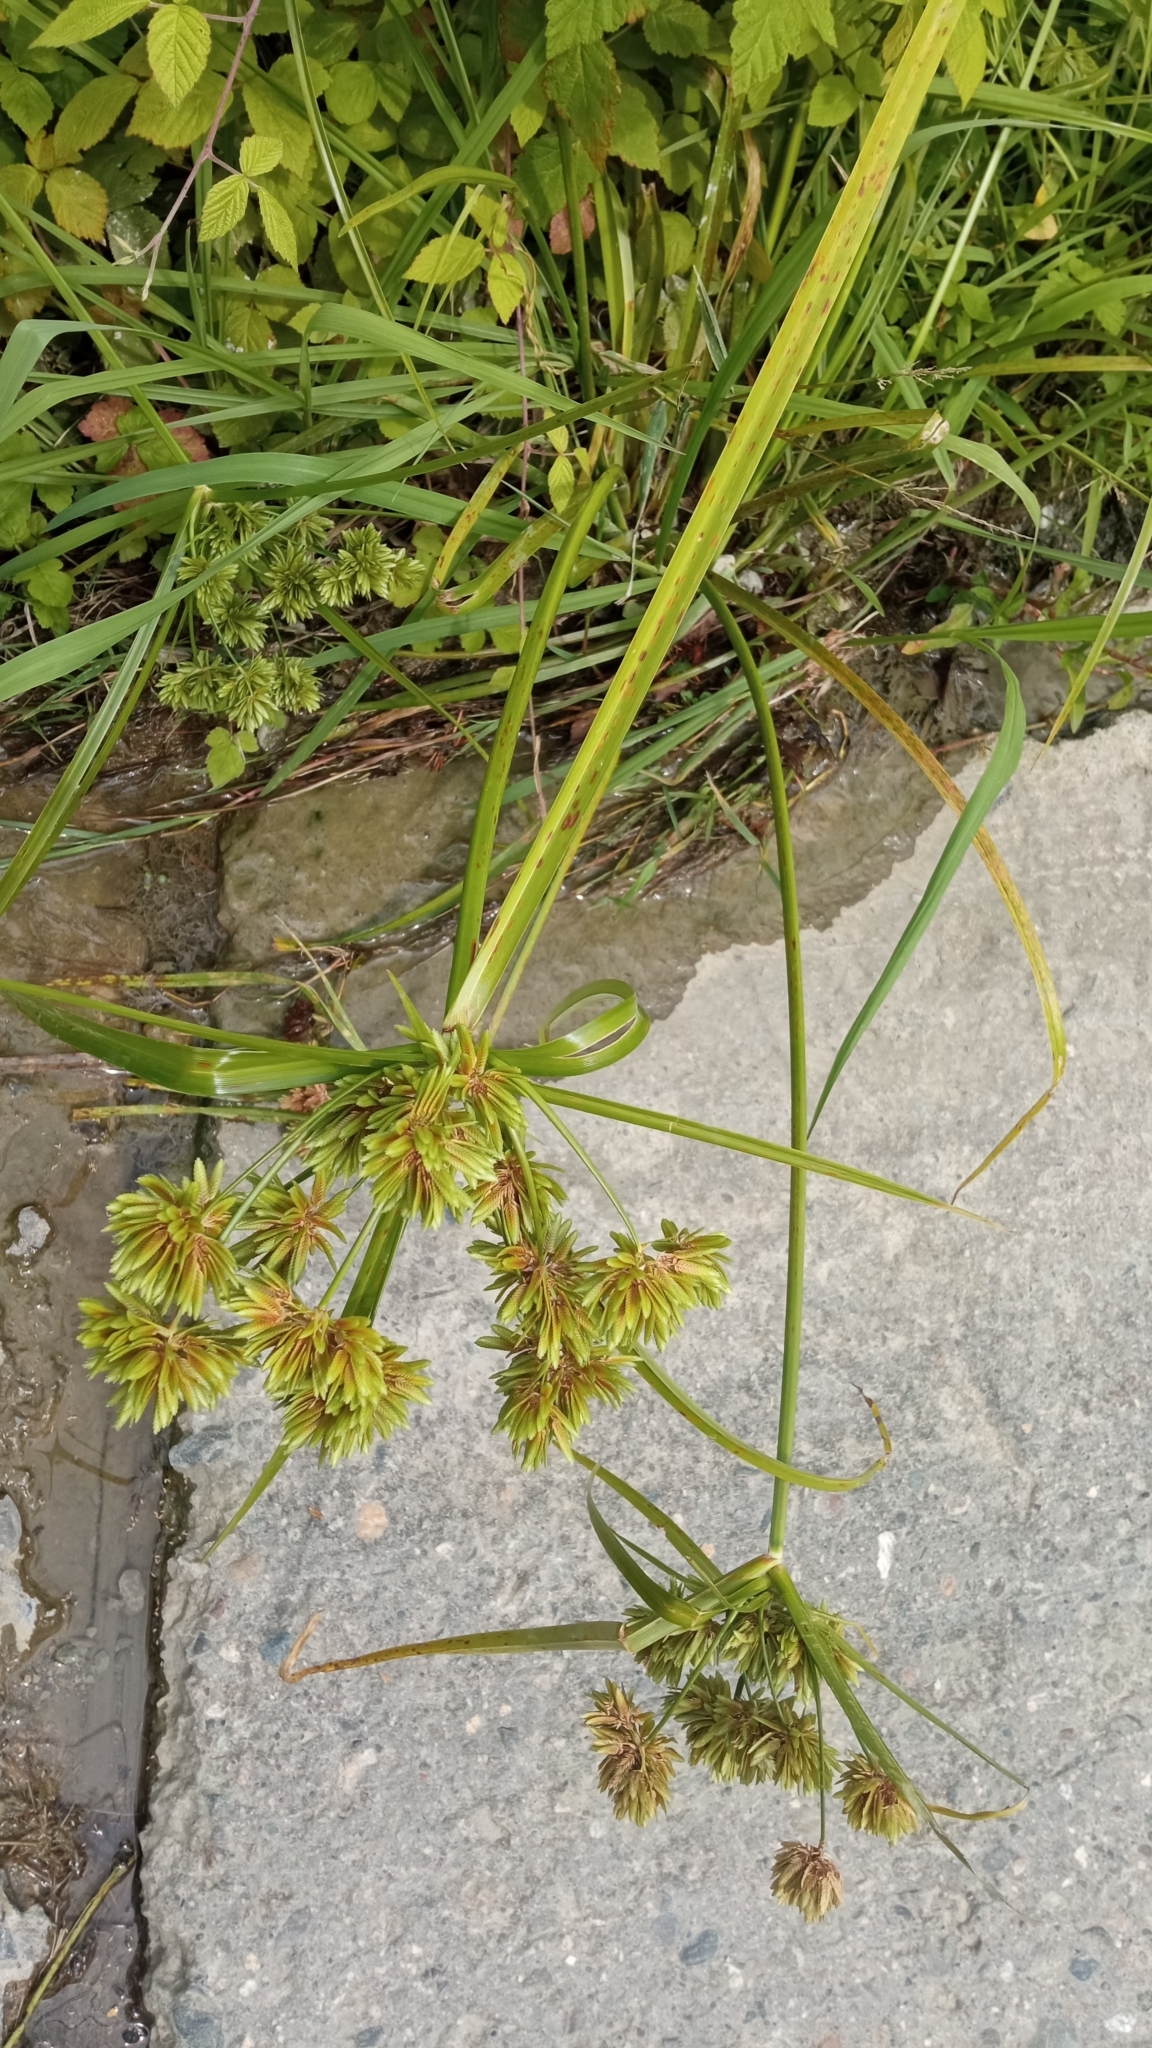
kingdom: Plantae
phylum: Tracheophyta
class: Liliopsida
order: Poales
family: Cyperaceae
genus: Cyperus
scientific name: Cyperus eragrostis
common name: Tall flatsedge
